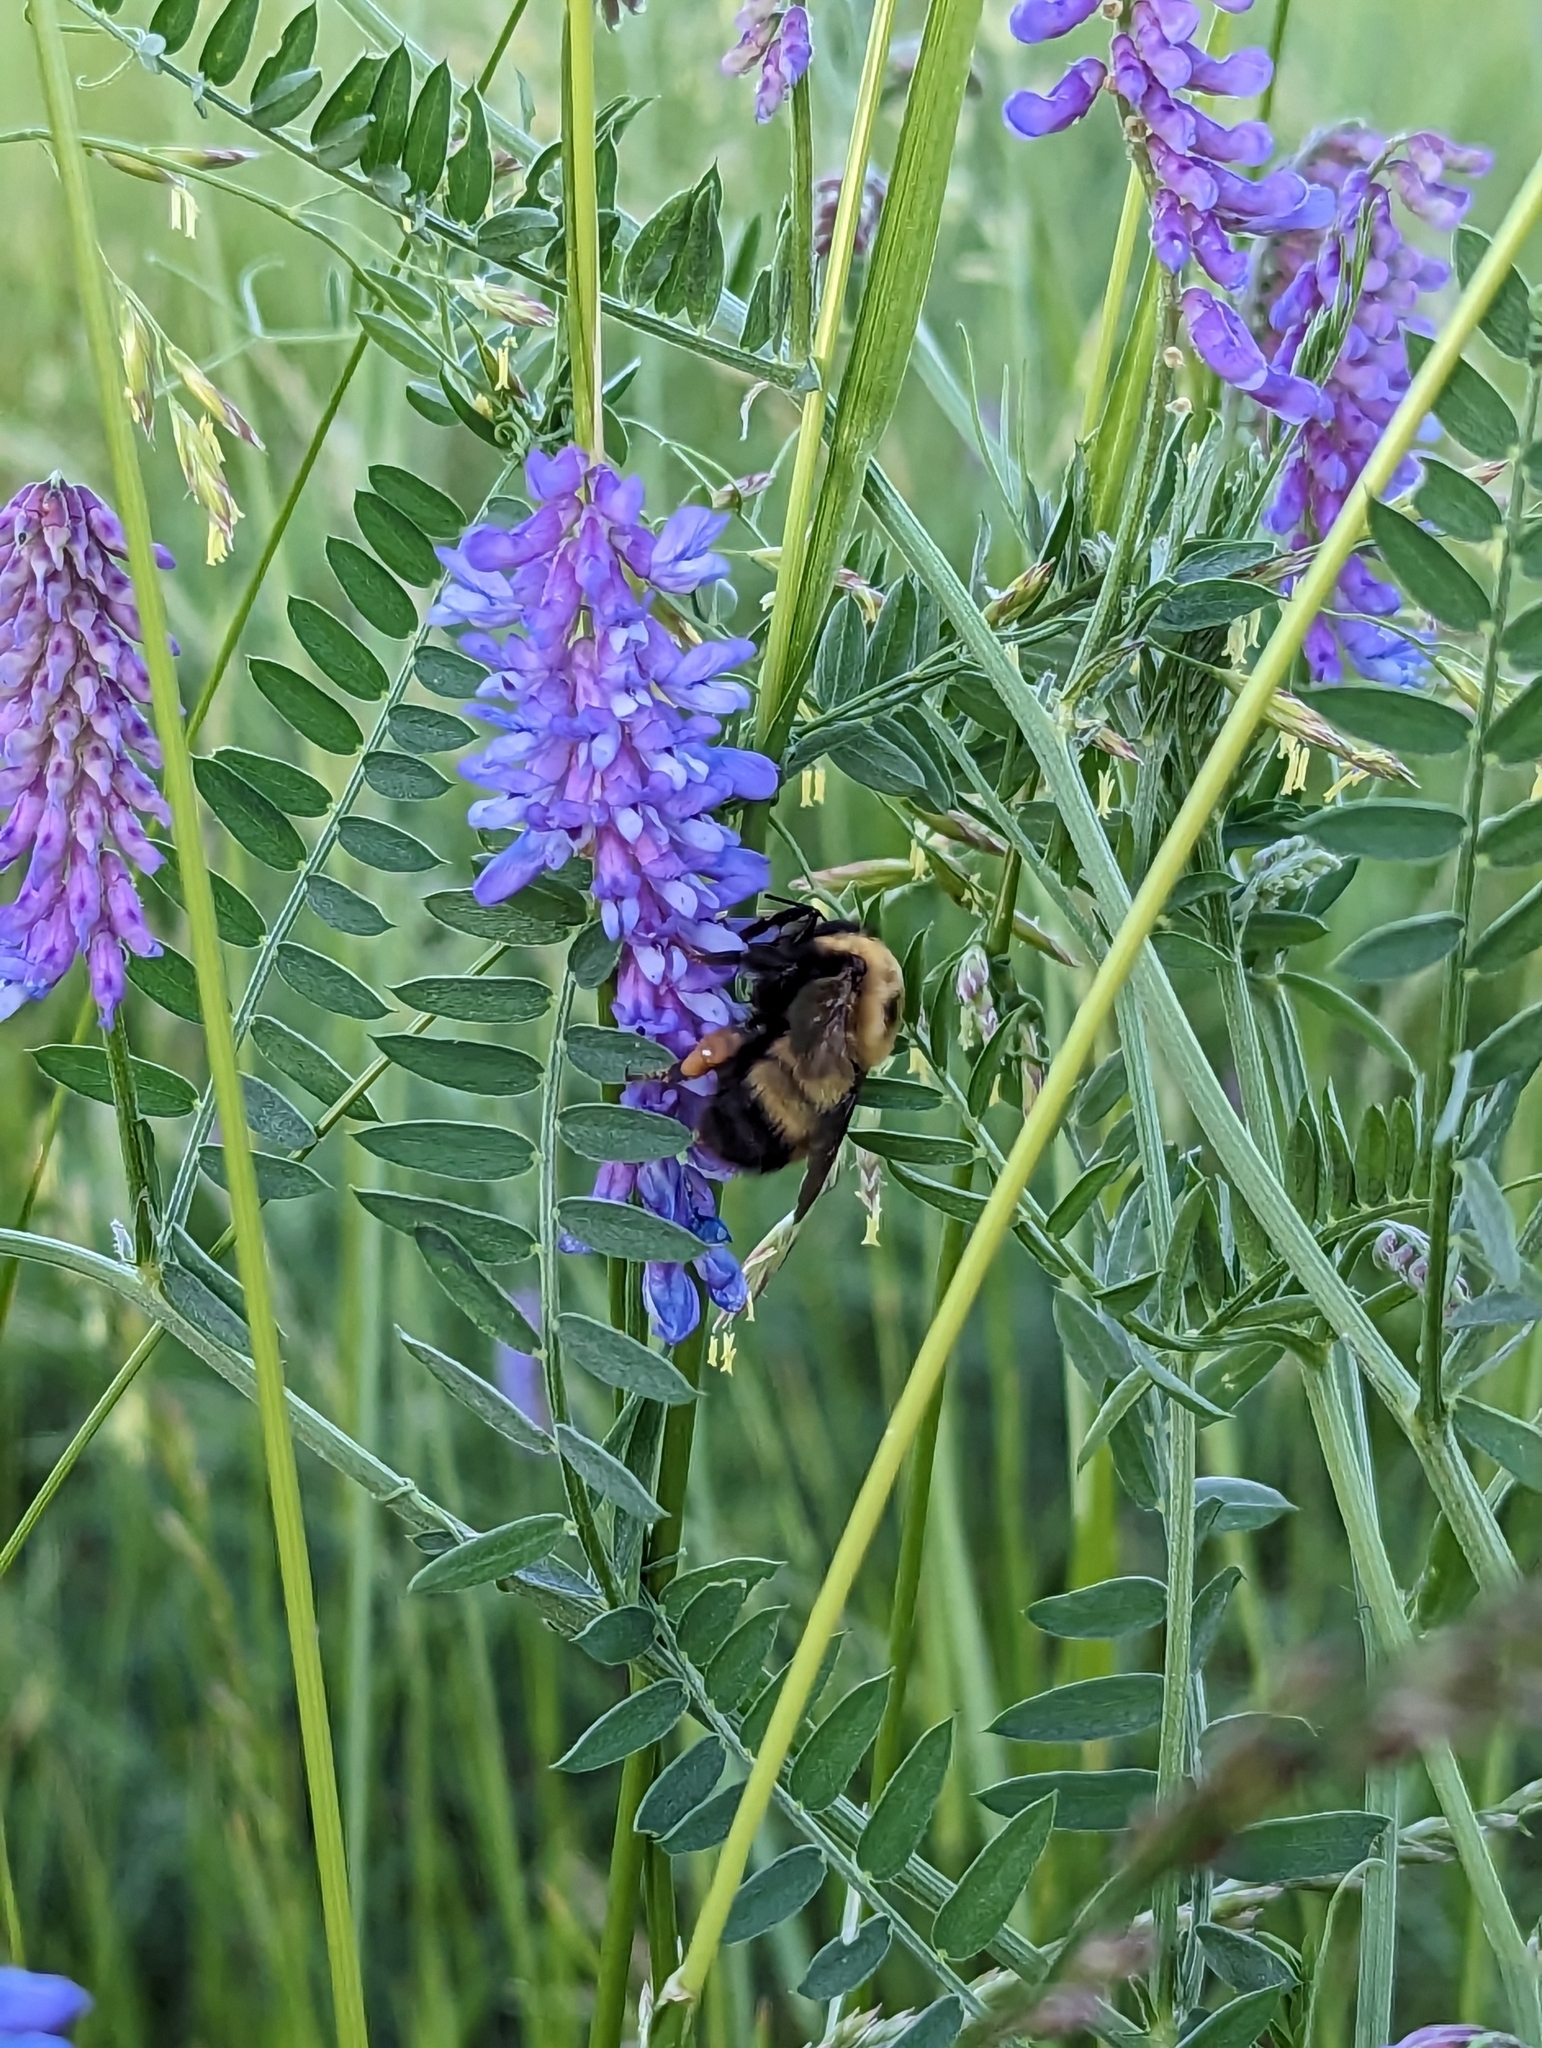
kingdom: Animalia
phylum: Arthropoda
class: Insecta
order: Hymenoptera
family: Apidae
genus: Bombus
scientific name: Bombus nevadensis
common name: Nevada bumble bee
